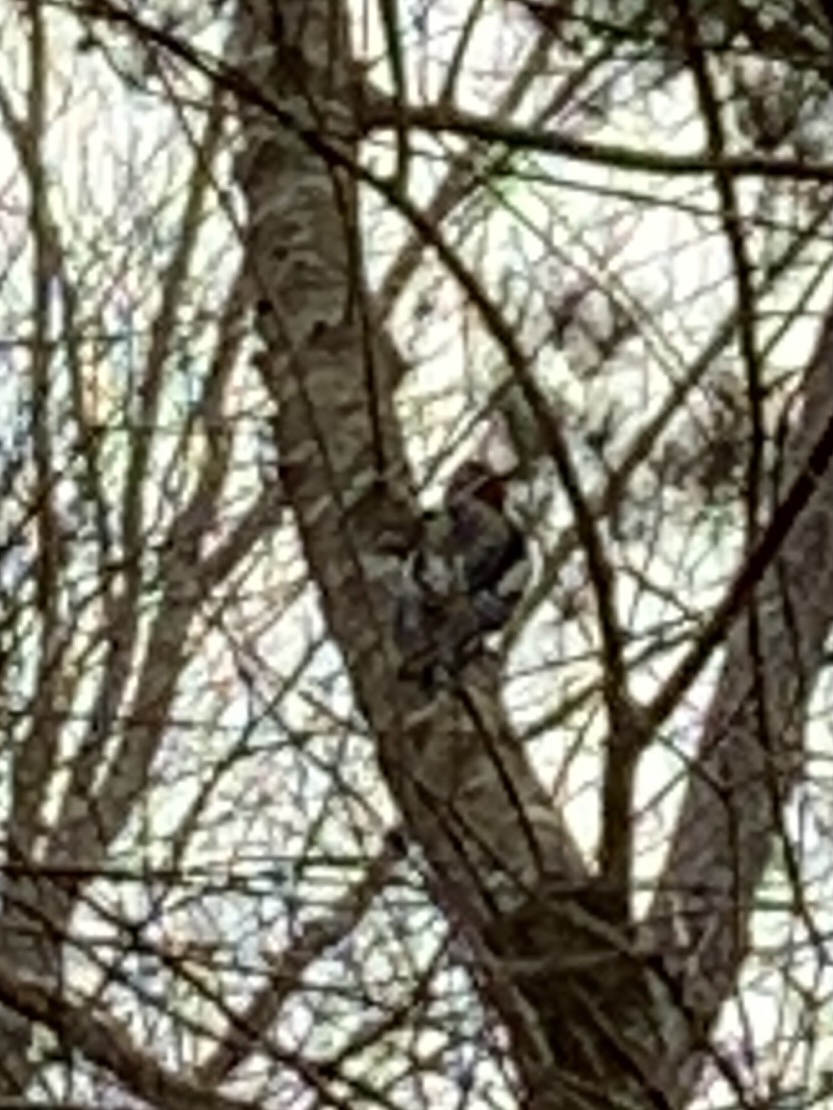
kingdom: Animalia
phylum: Chordata
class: Aves
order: Piciformes
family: Picidae
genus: Sphyrapicus
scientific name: Sphyrapicus varius
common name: Yellow-bellied sapsucker
